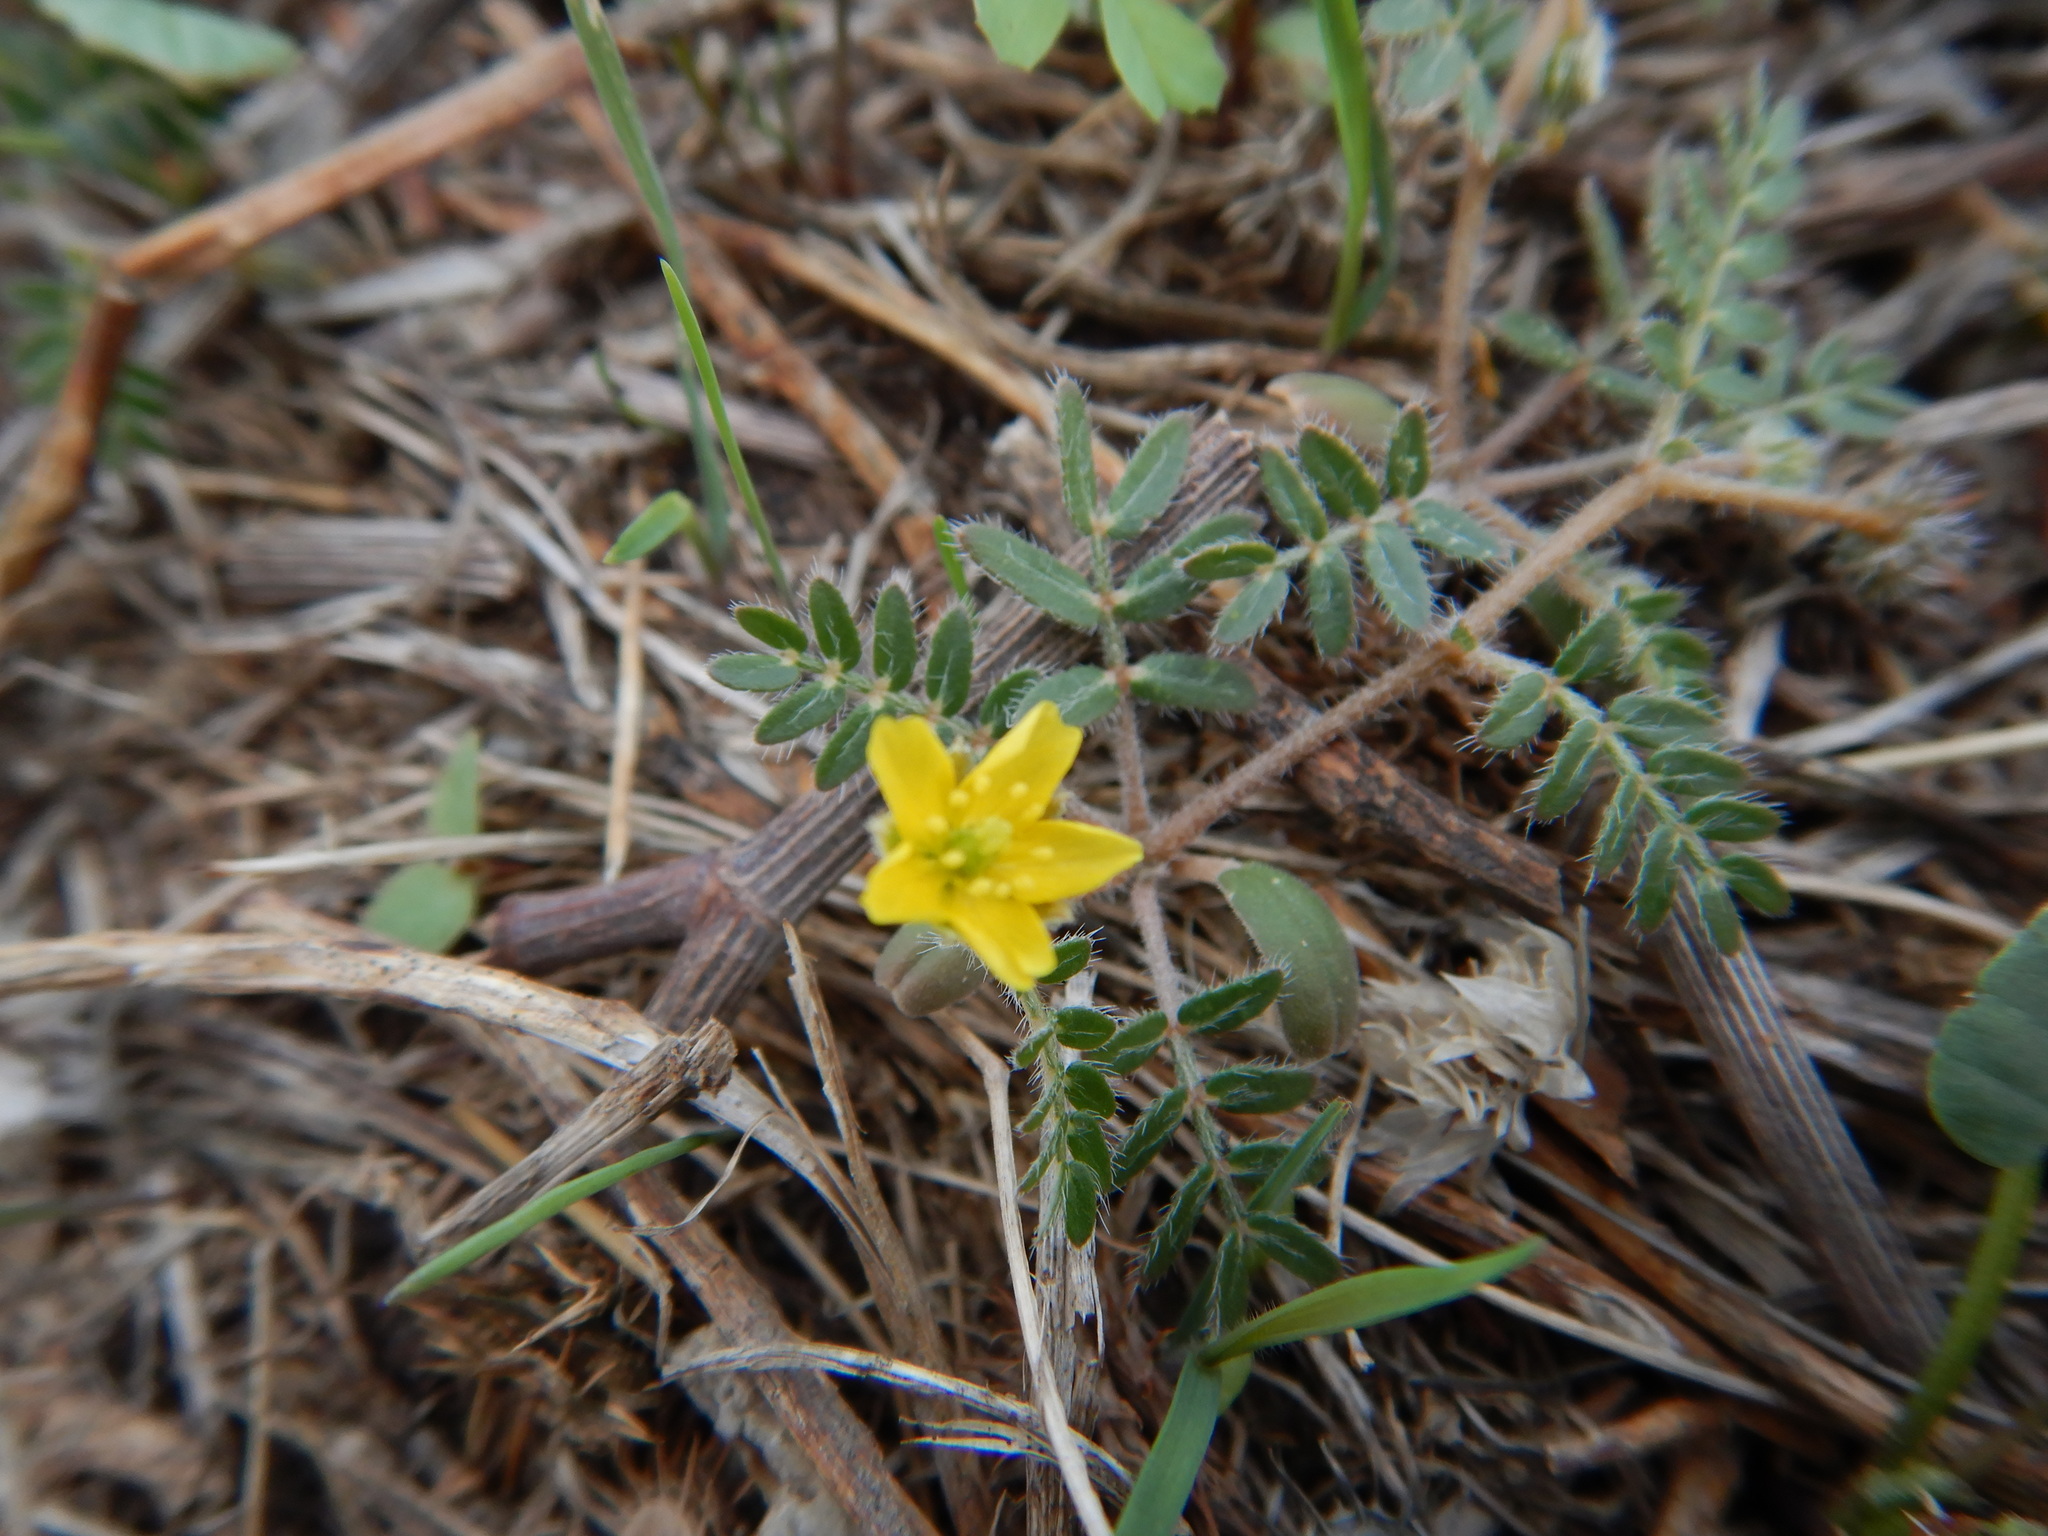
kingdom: Plantae
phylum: Tracheophyta
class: Magnoliopsida
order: Zygophyllales
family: Zygophyllaceae
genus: Tribulus
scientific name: Tribulus terrestris
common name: Puncturevine
